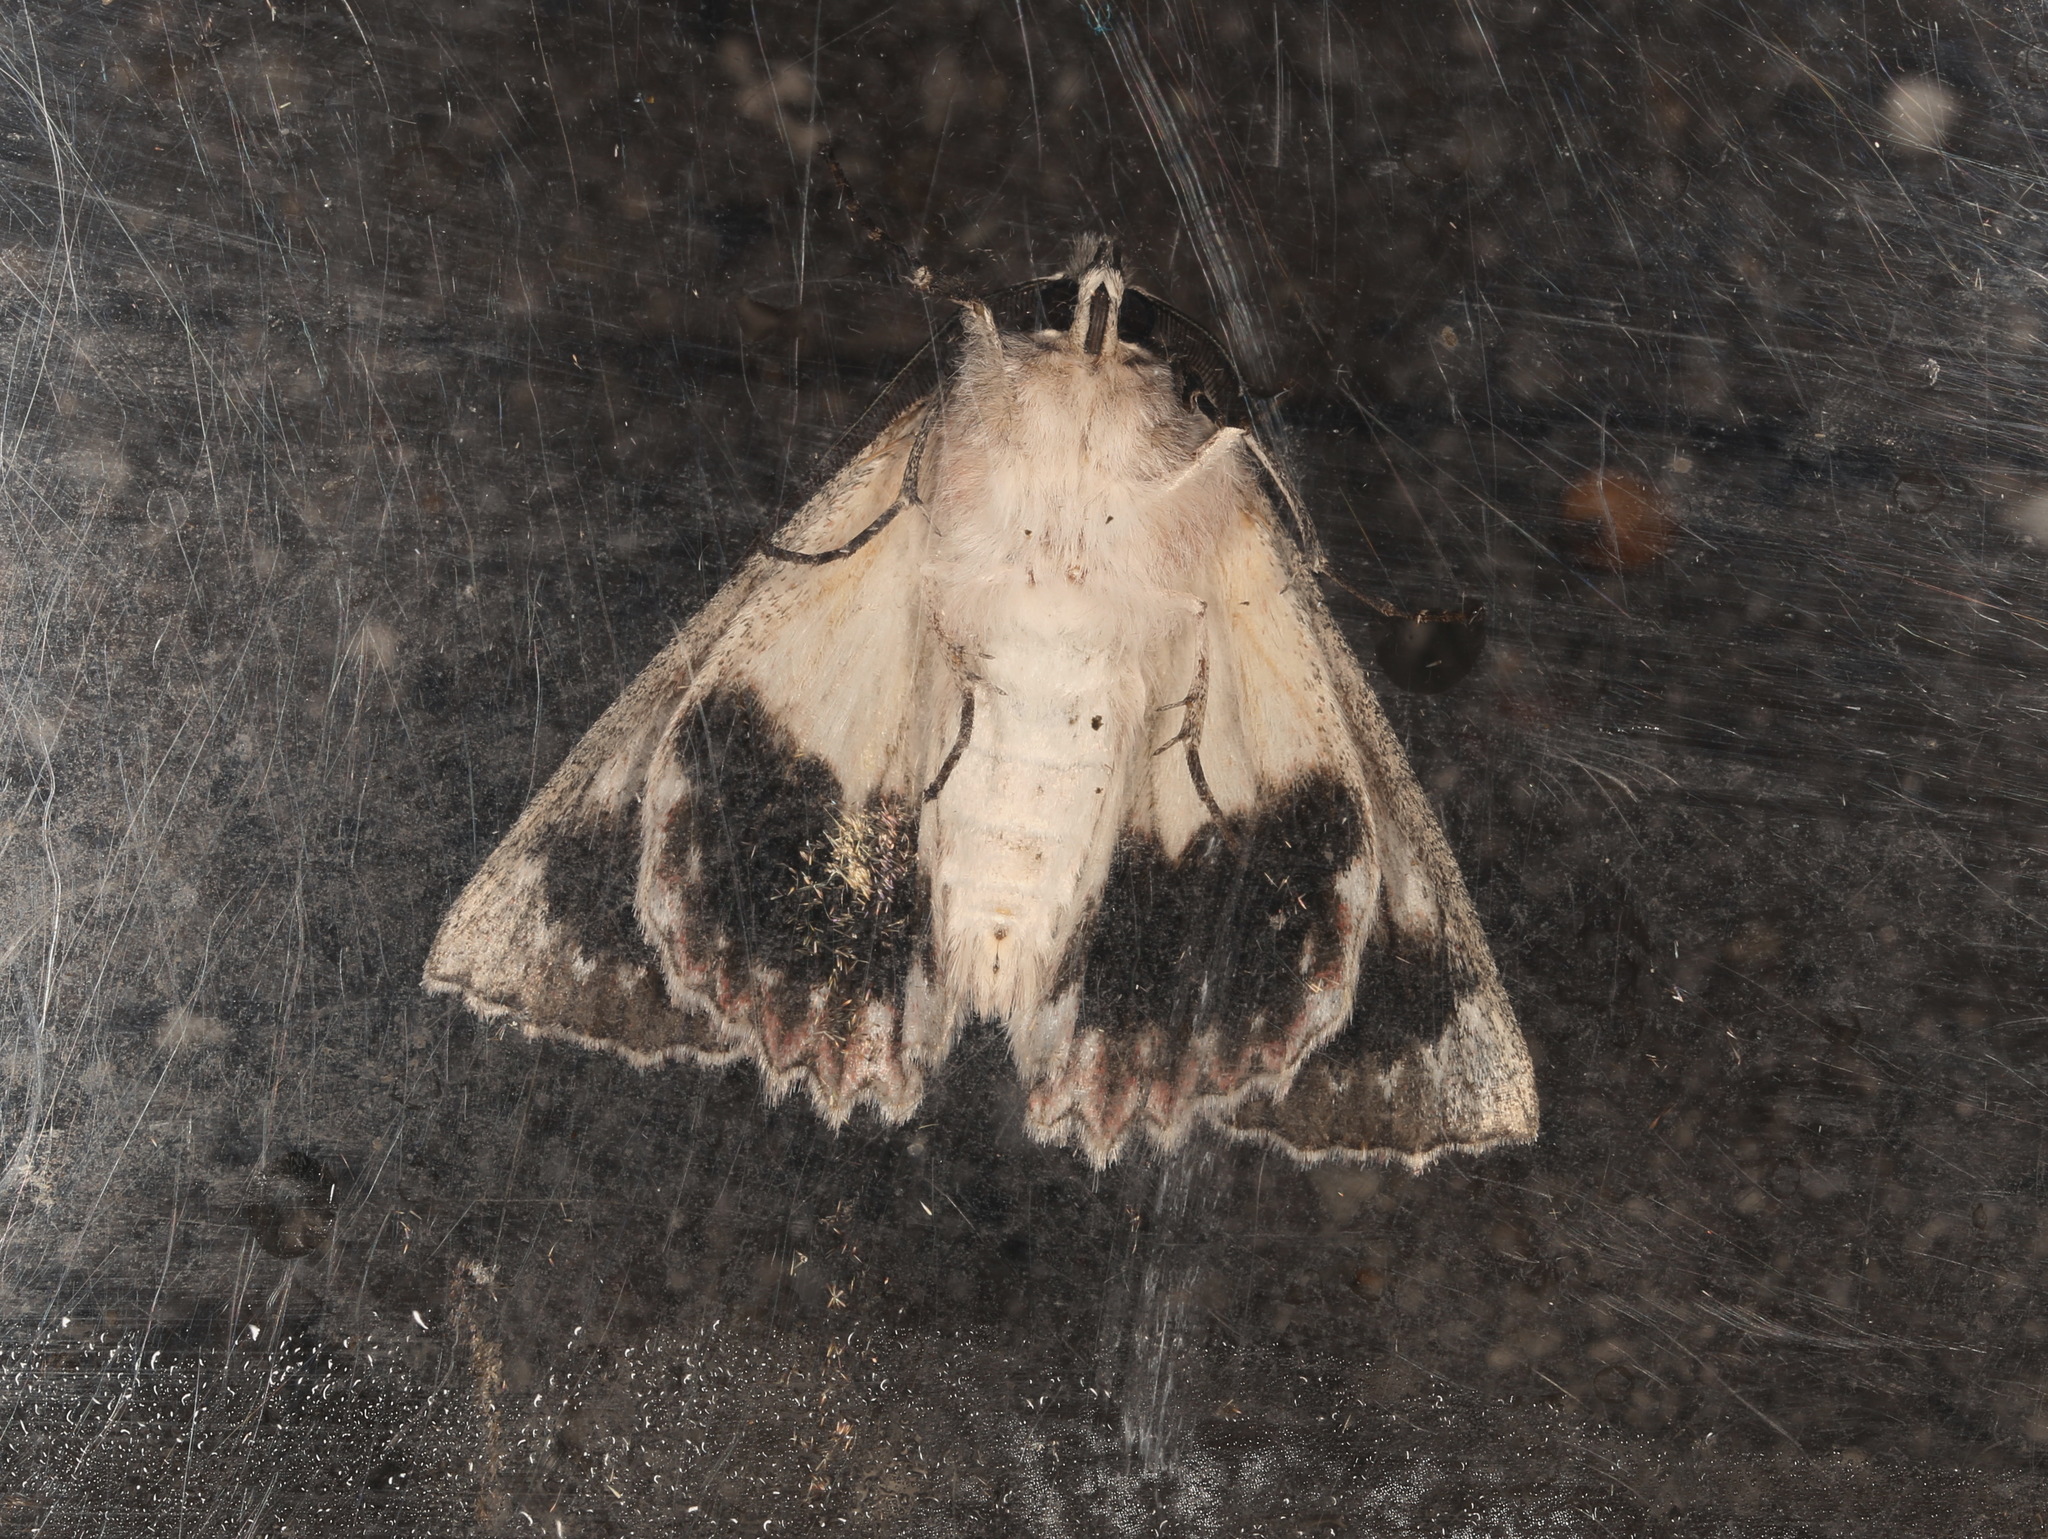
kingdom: Animalia
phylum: Arthropoda
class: Insecta
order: Lepidoptera
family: Geometridae
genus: Cyneoterpna
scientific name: Cyneoterpna wilsoni
